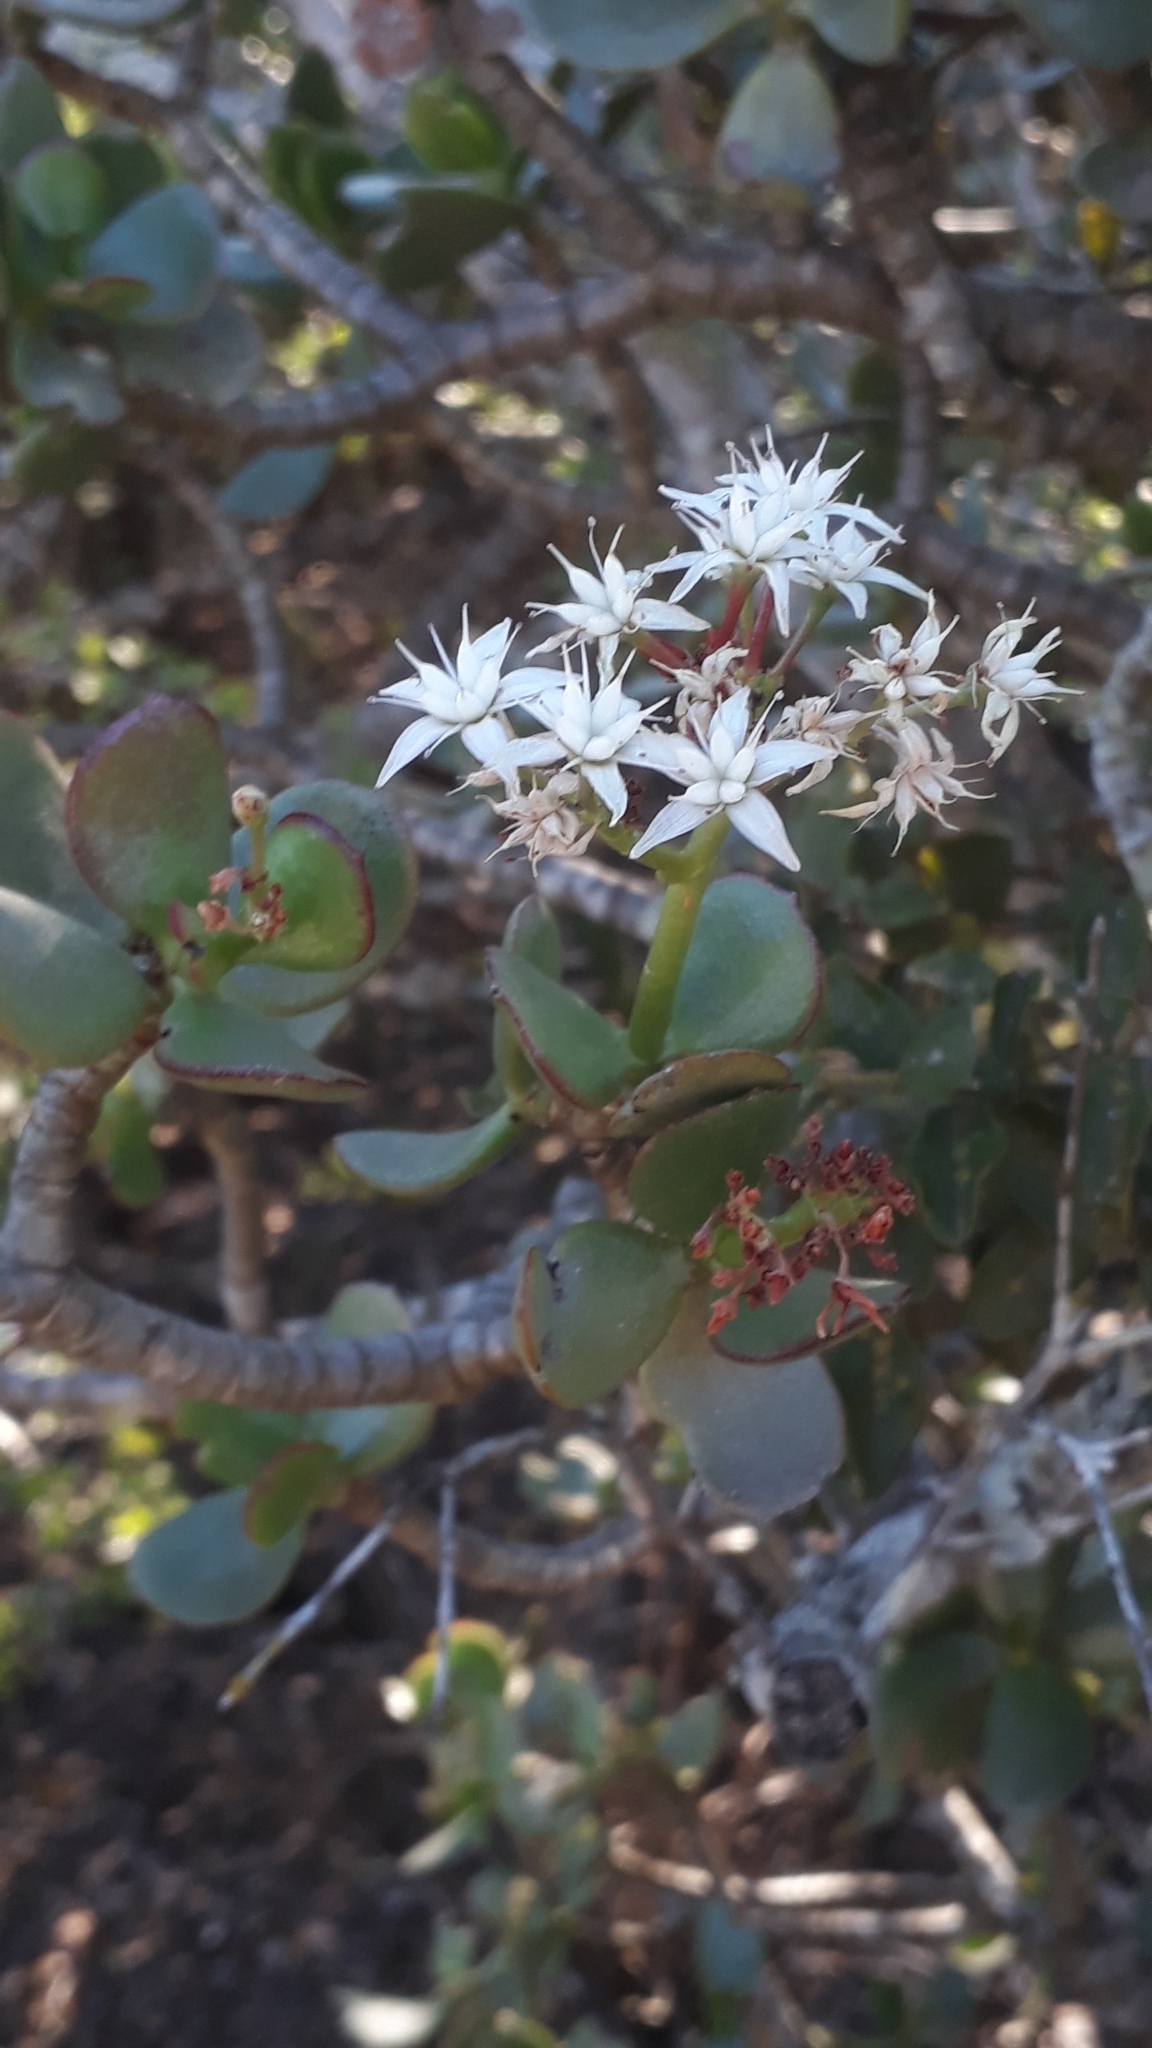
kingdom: Plantae
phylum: Tracheophyta
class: Magnoliopsida
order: Saxifragales
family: Crassulaceae
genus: Crassula
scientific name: Crassula ovata
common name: Jade plant
